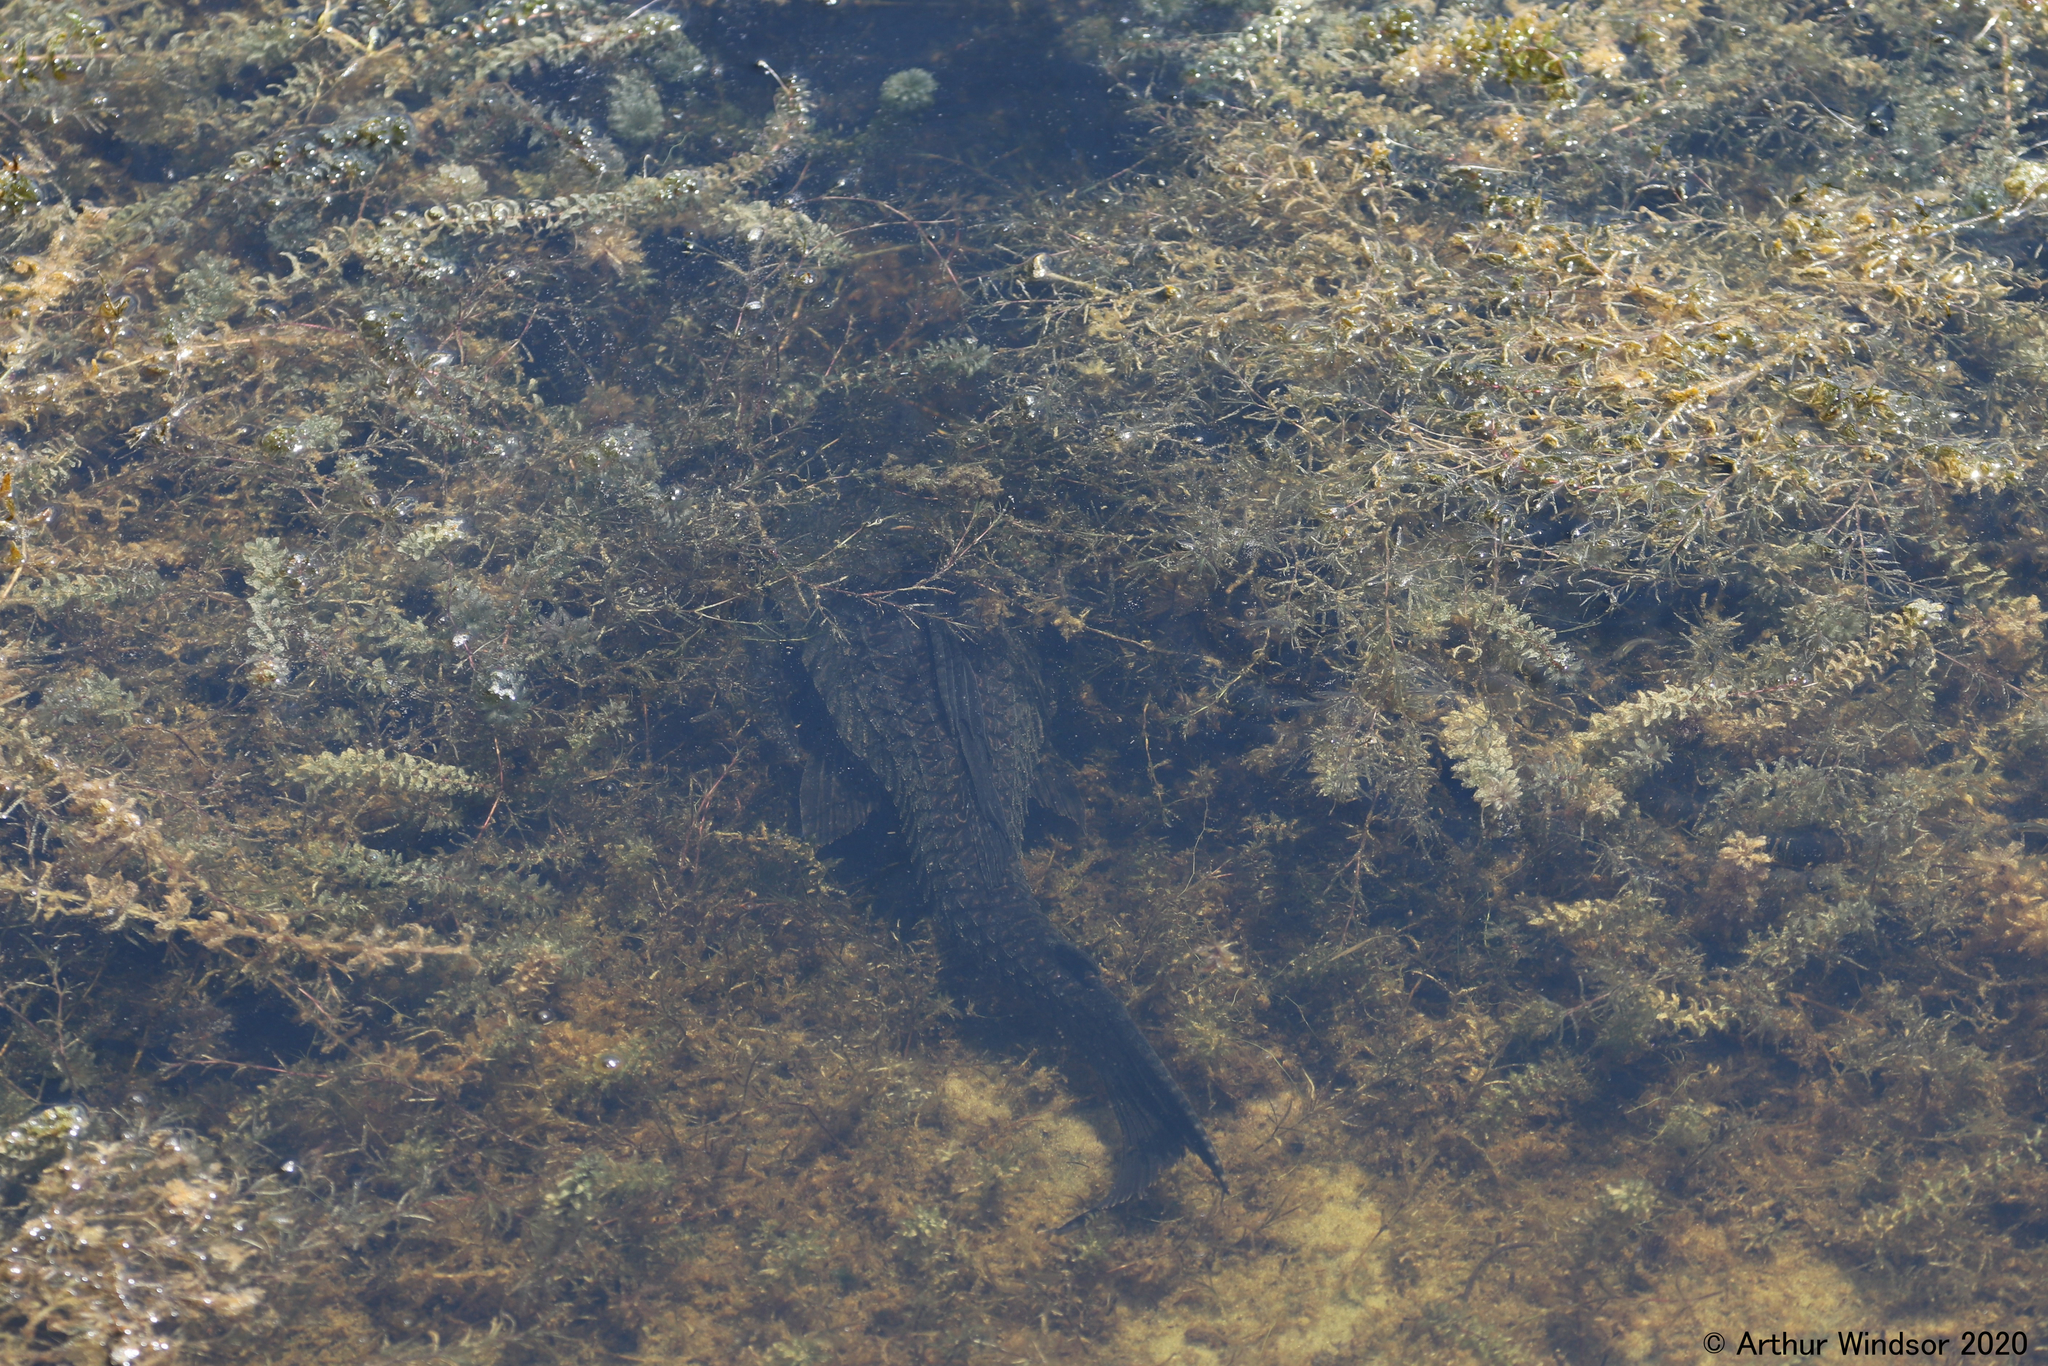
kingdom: Animalia
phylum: Chordata
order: Siluriformes
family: Loricariidae
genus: Pterygoplichthys
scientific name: Pterygoplichthys
